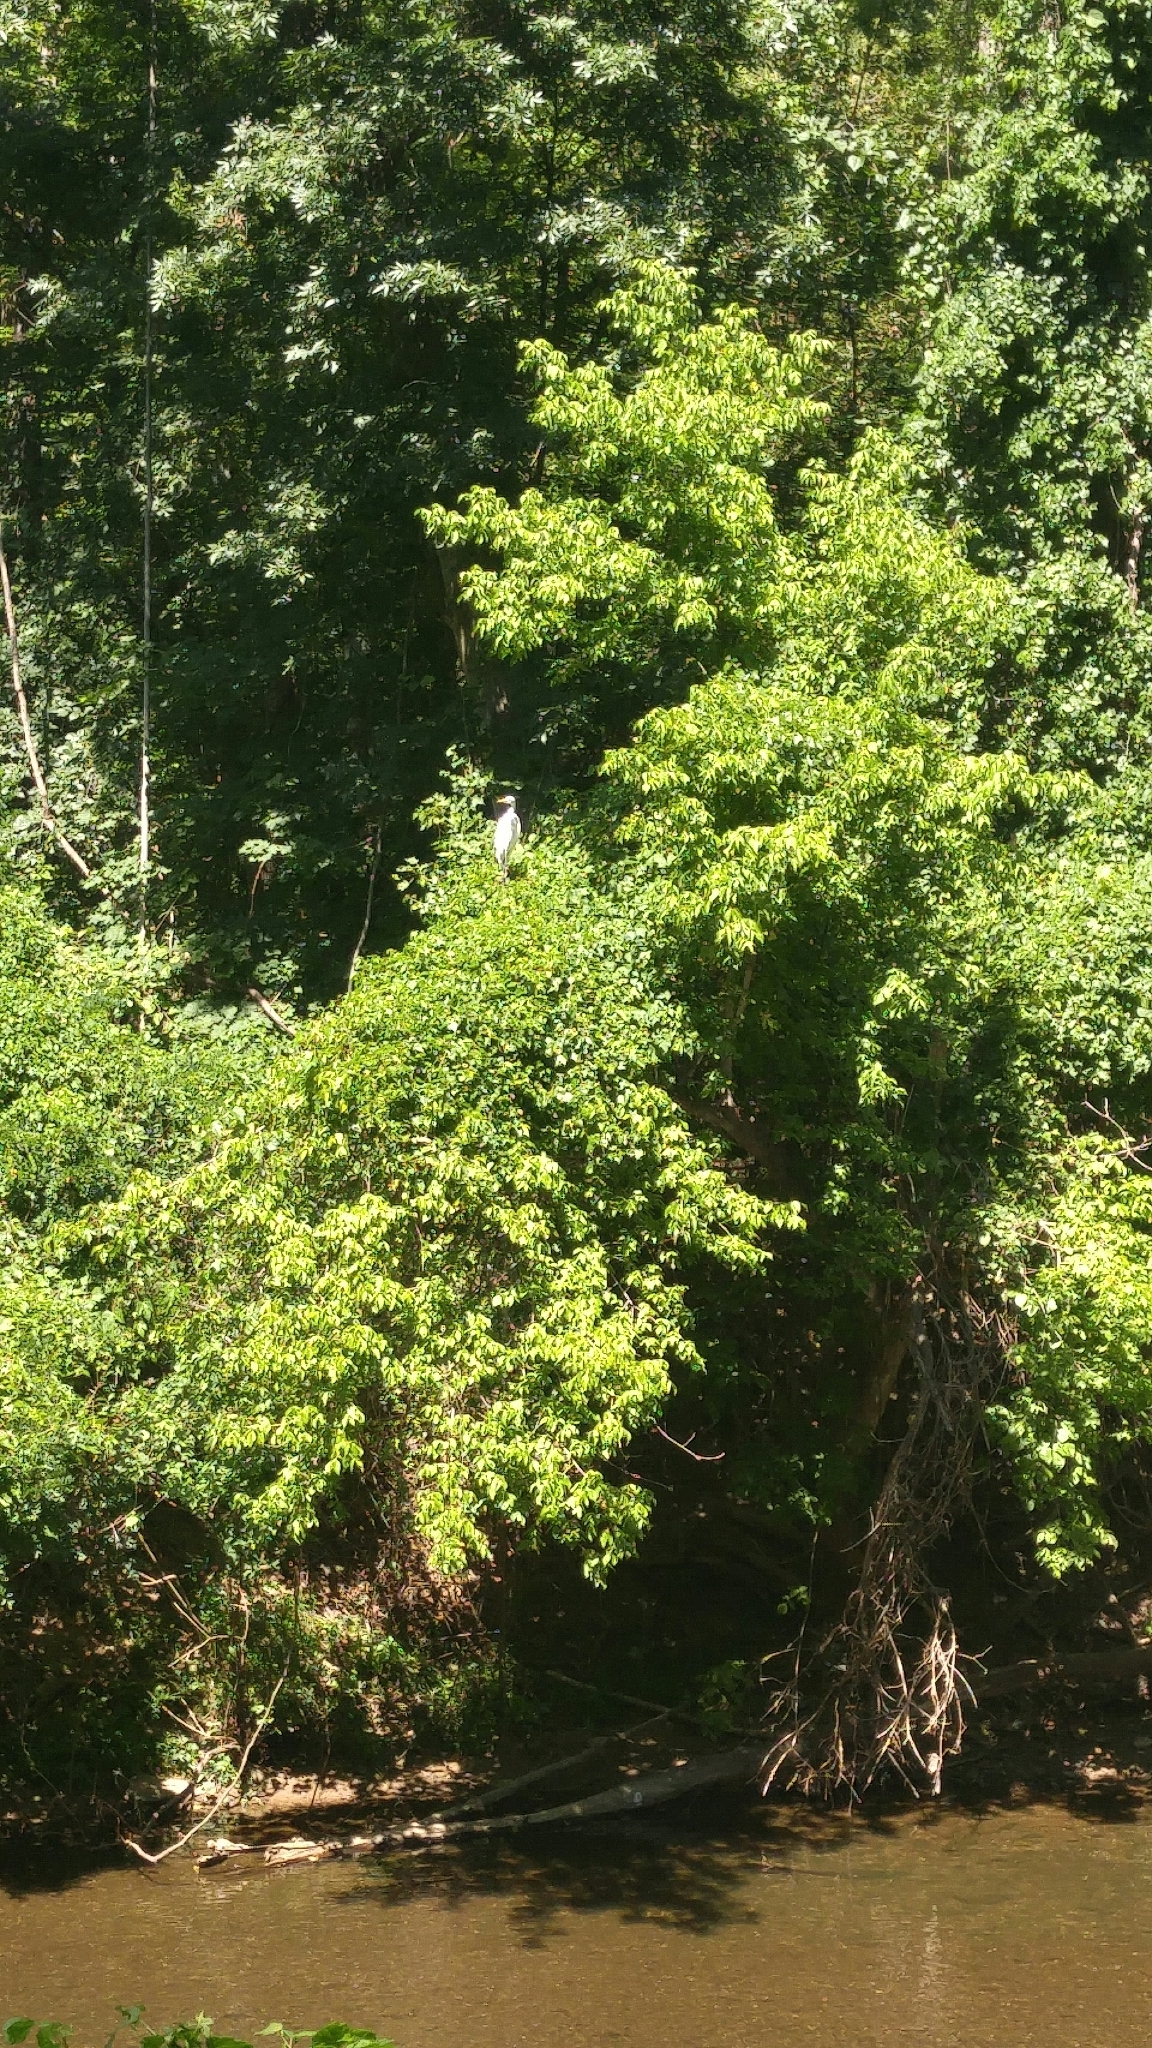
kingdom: Animalia
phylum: Chordata
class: Aves
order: Pelecaniformes
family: Ardeidae
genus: Ardea
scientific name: Ardea alba
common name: Great egret
